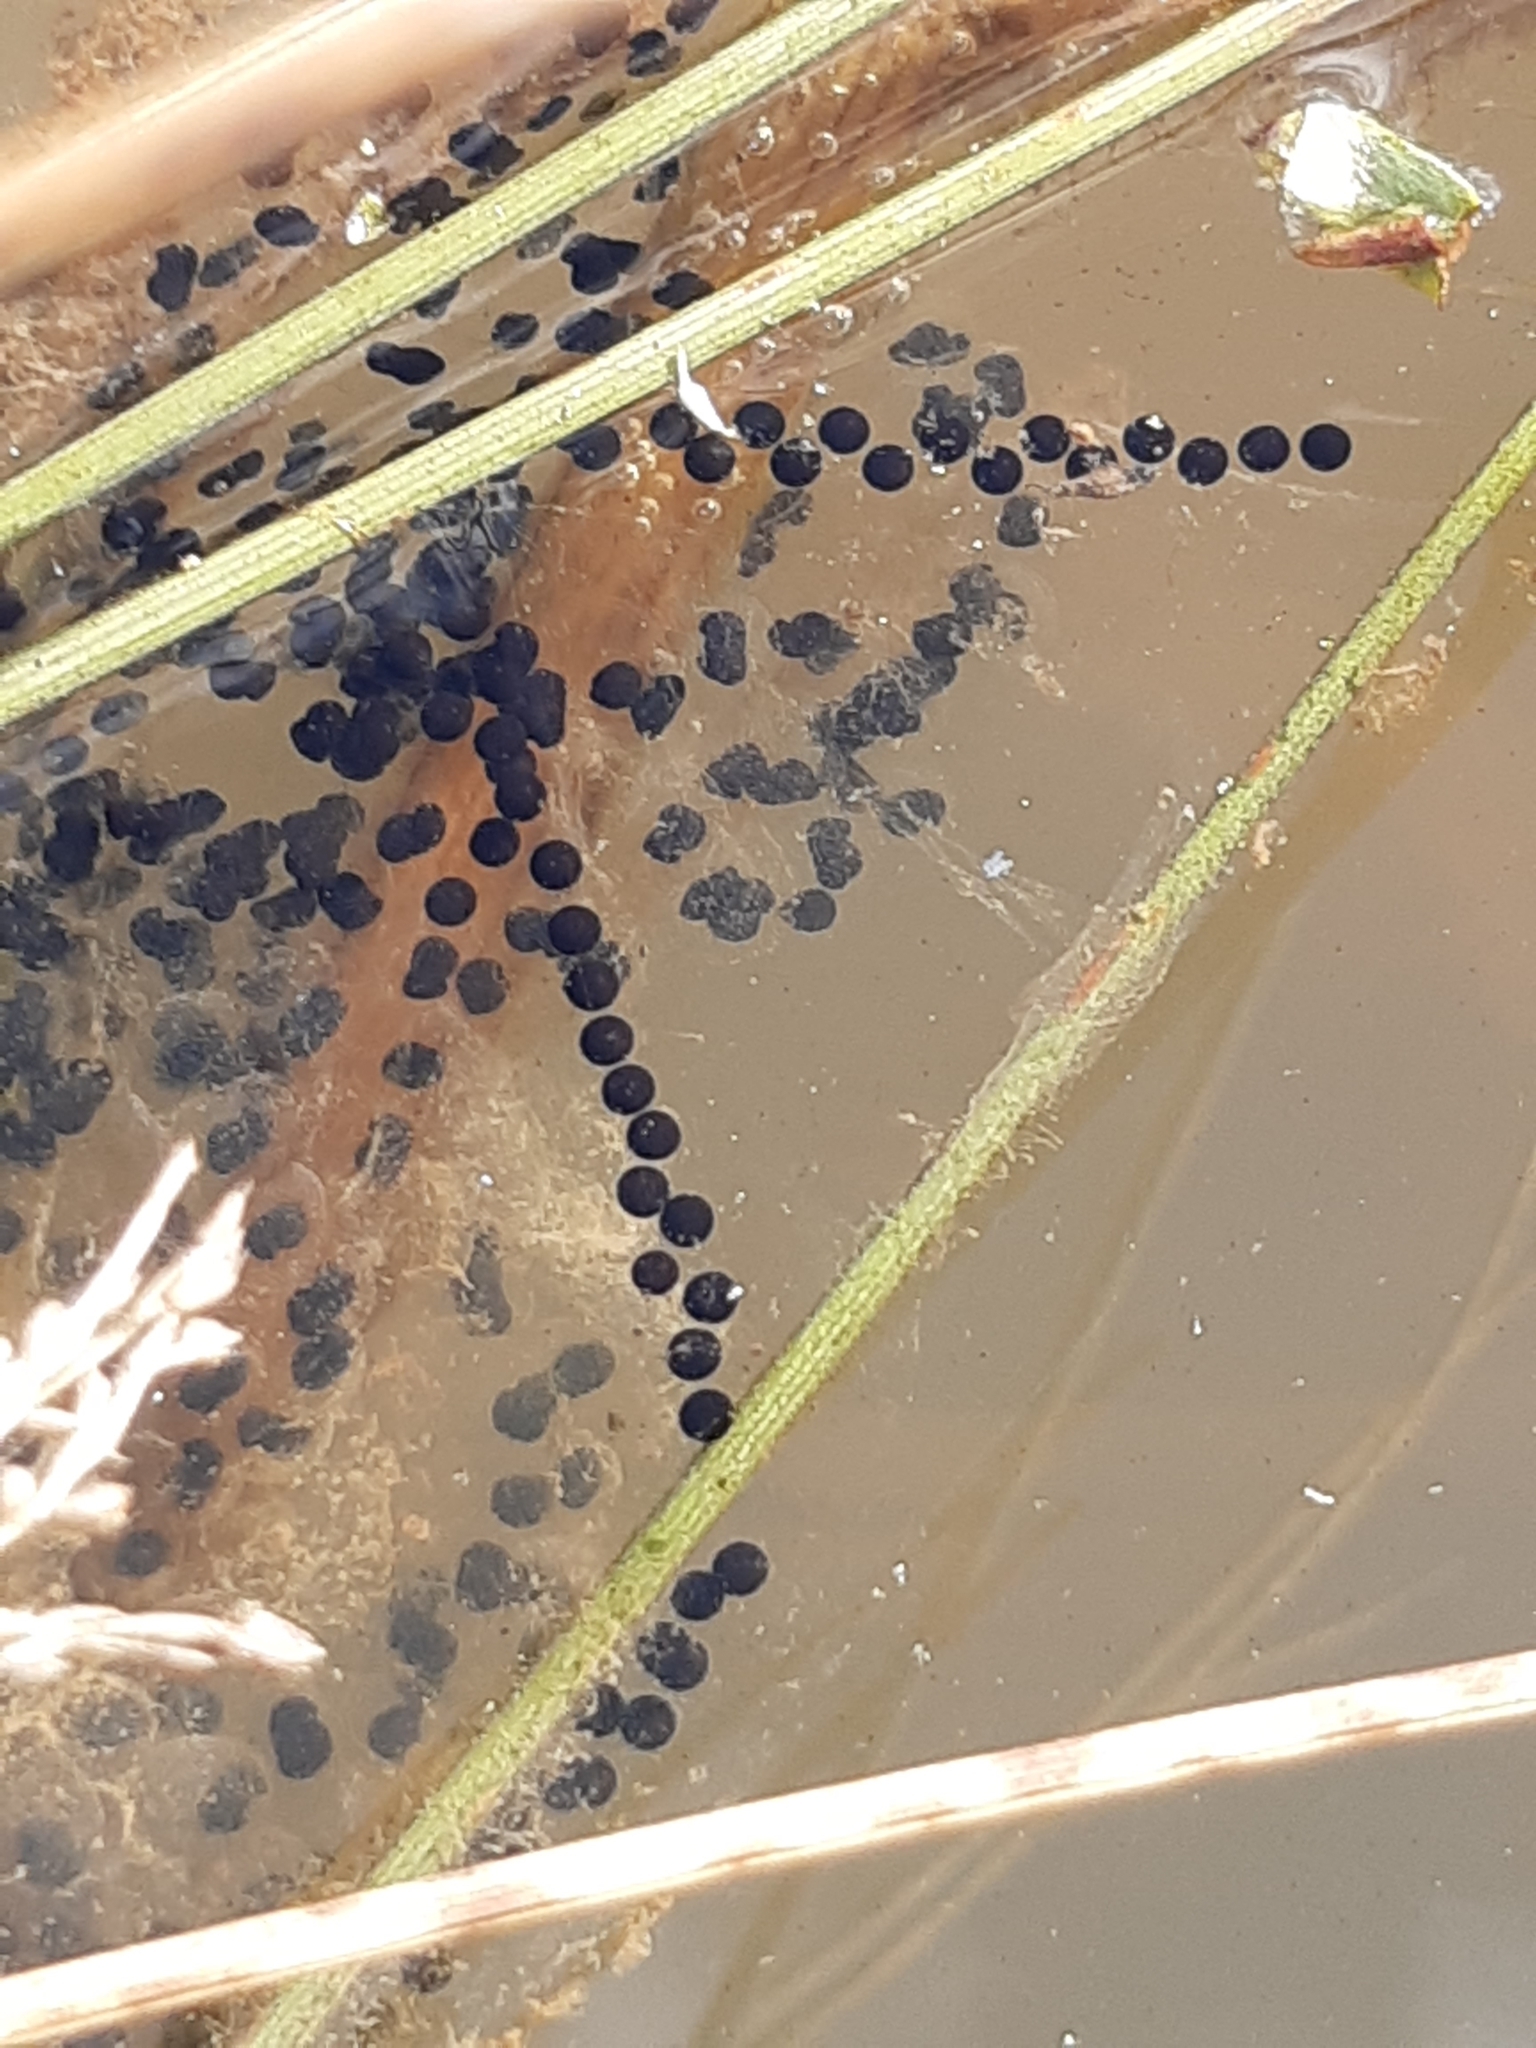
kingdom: Animalia
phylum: Chordata
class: Amphibia
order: Anura
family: Bufonidae
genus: Bufo
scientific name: Bufo bufo
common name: Common toad
